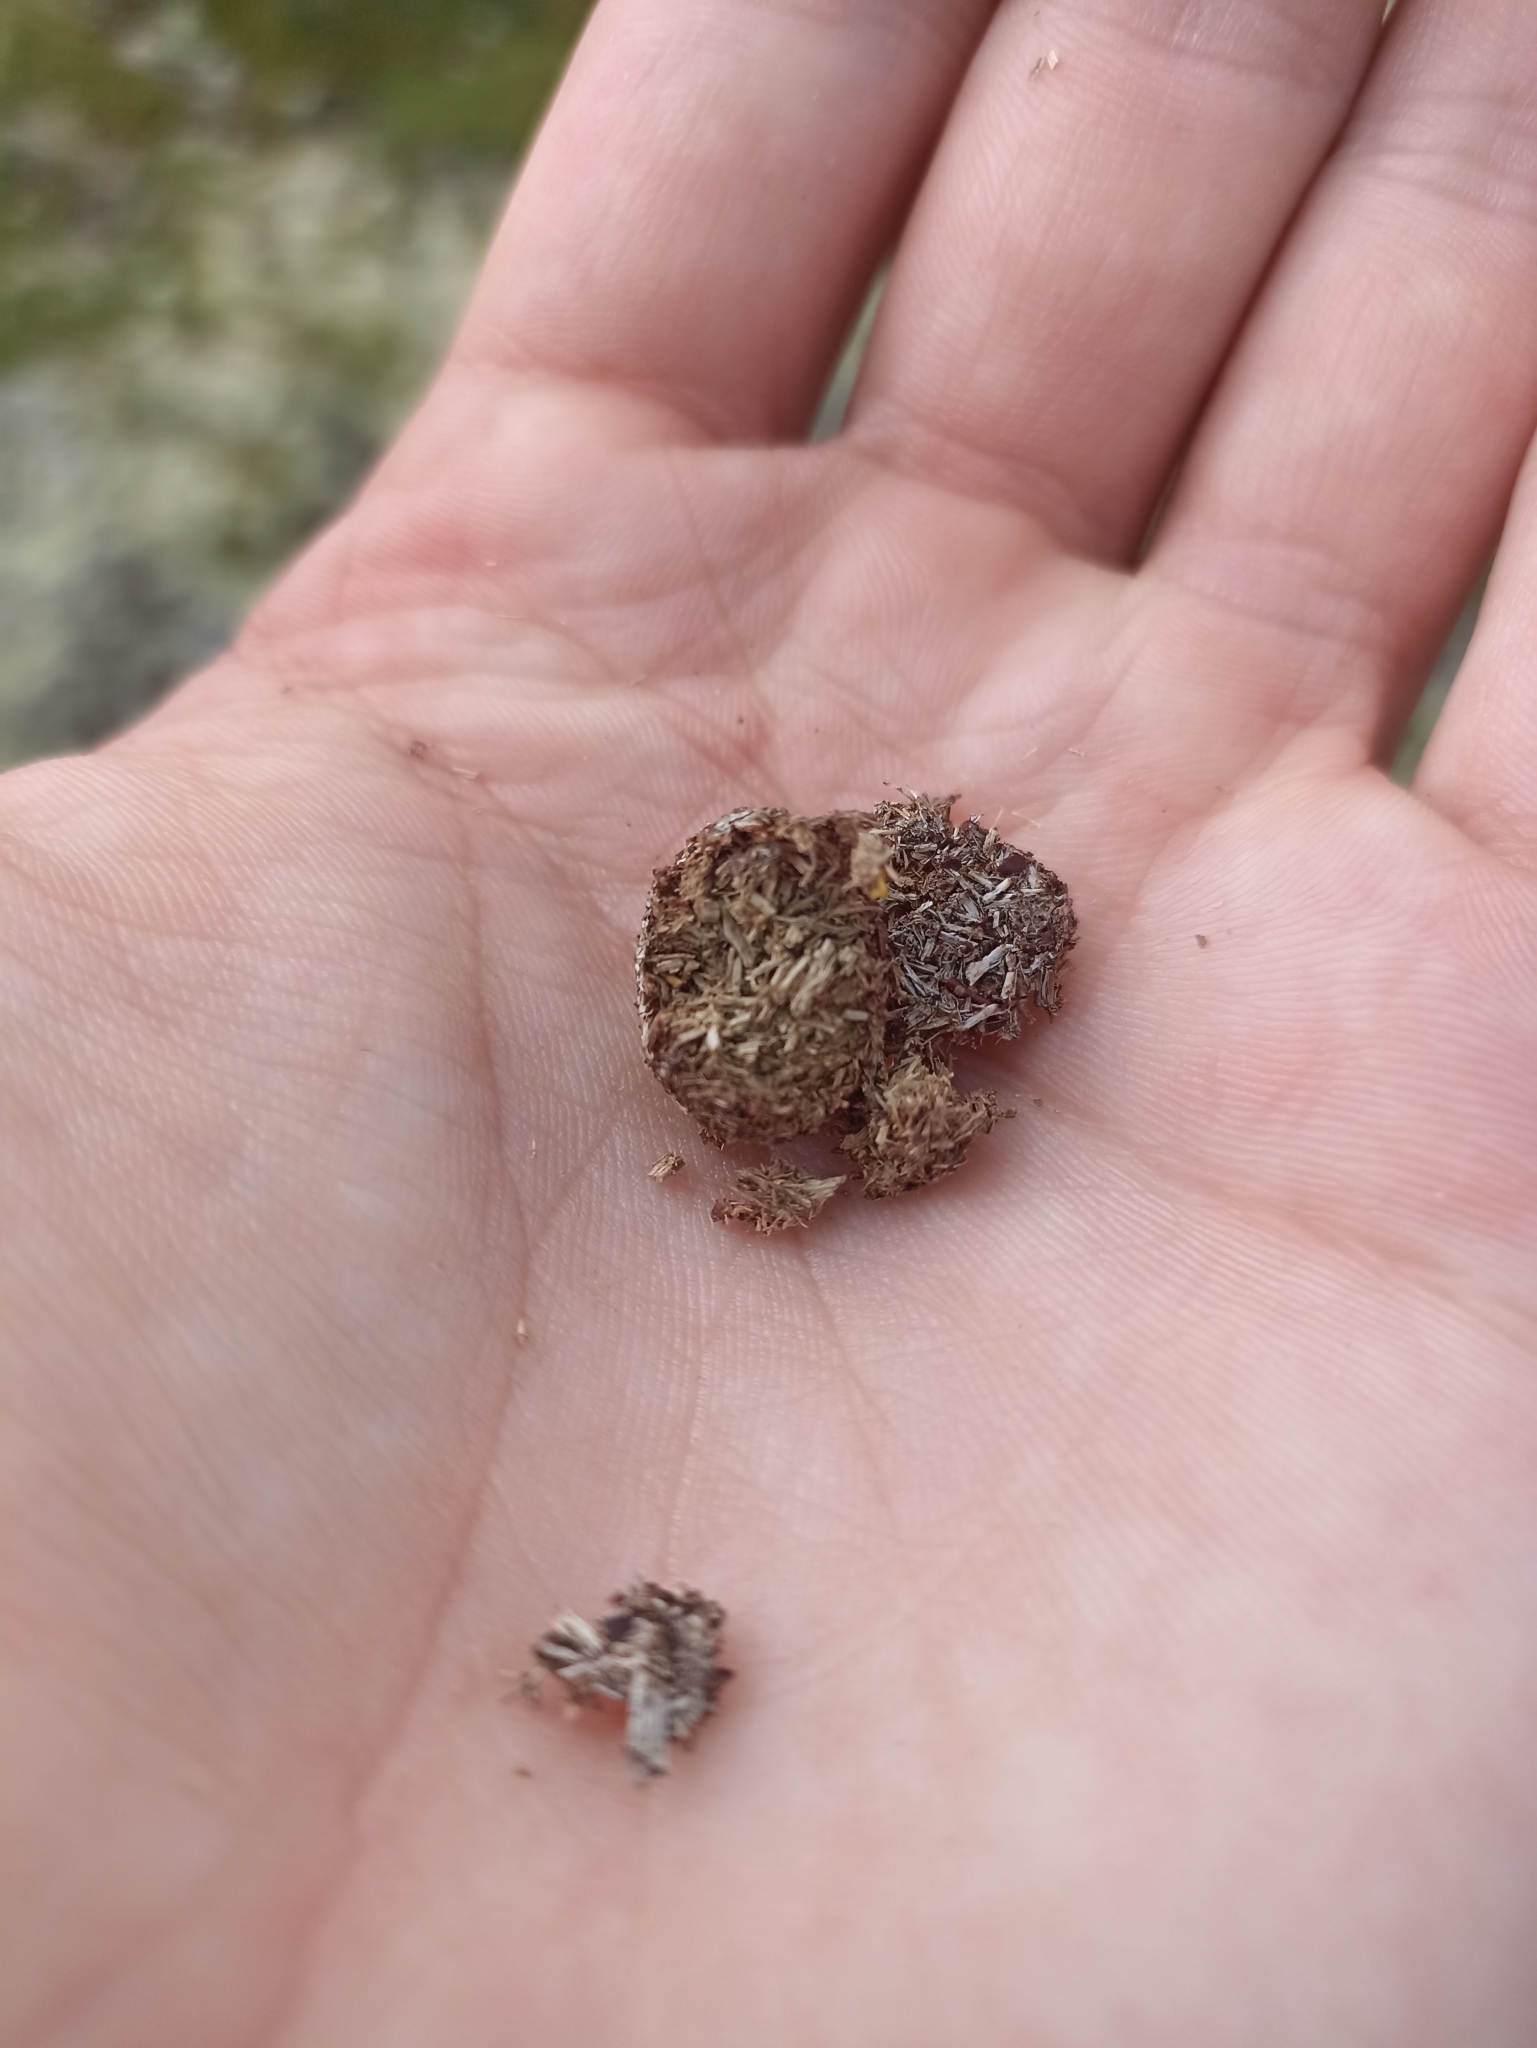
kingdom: Animalia
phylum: Chordata
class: Mammalia
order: Lagomorpha
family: Leporidae
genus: Lepus
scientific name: Lepus timidus
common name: Mountain hare
